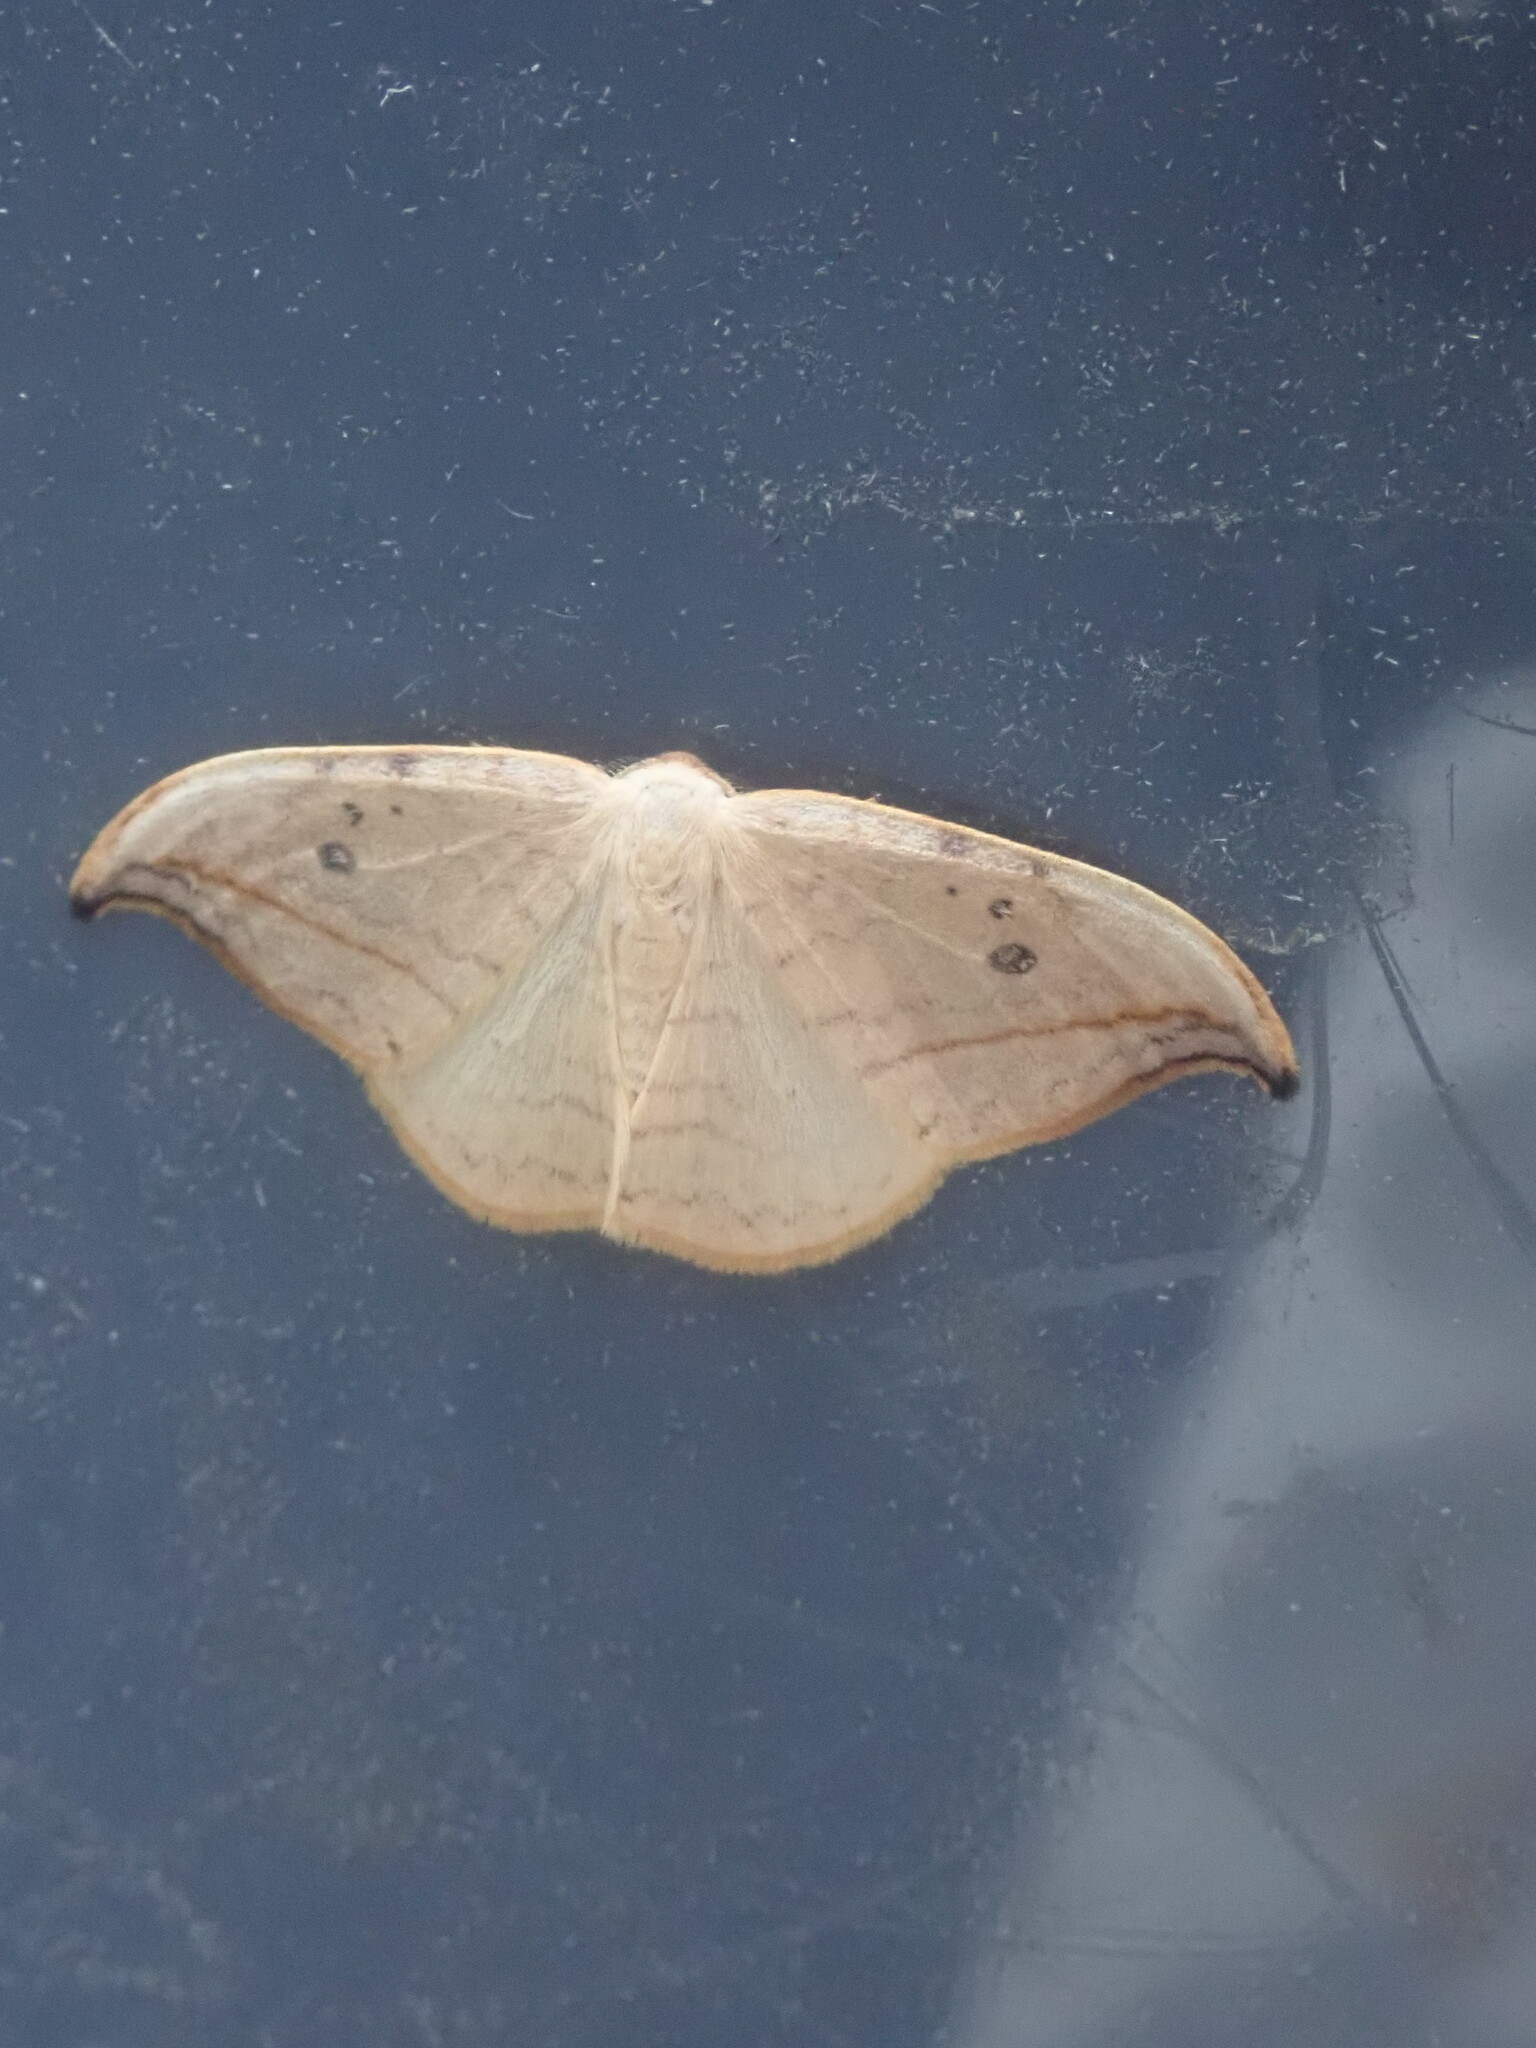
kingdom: Animalia
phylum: Arthropoda
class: Insecta
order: Lepidoptera
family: Drepanidae
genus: Drepana
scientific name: Drepana arcuata
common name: Arched hooktip moth
